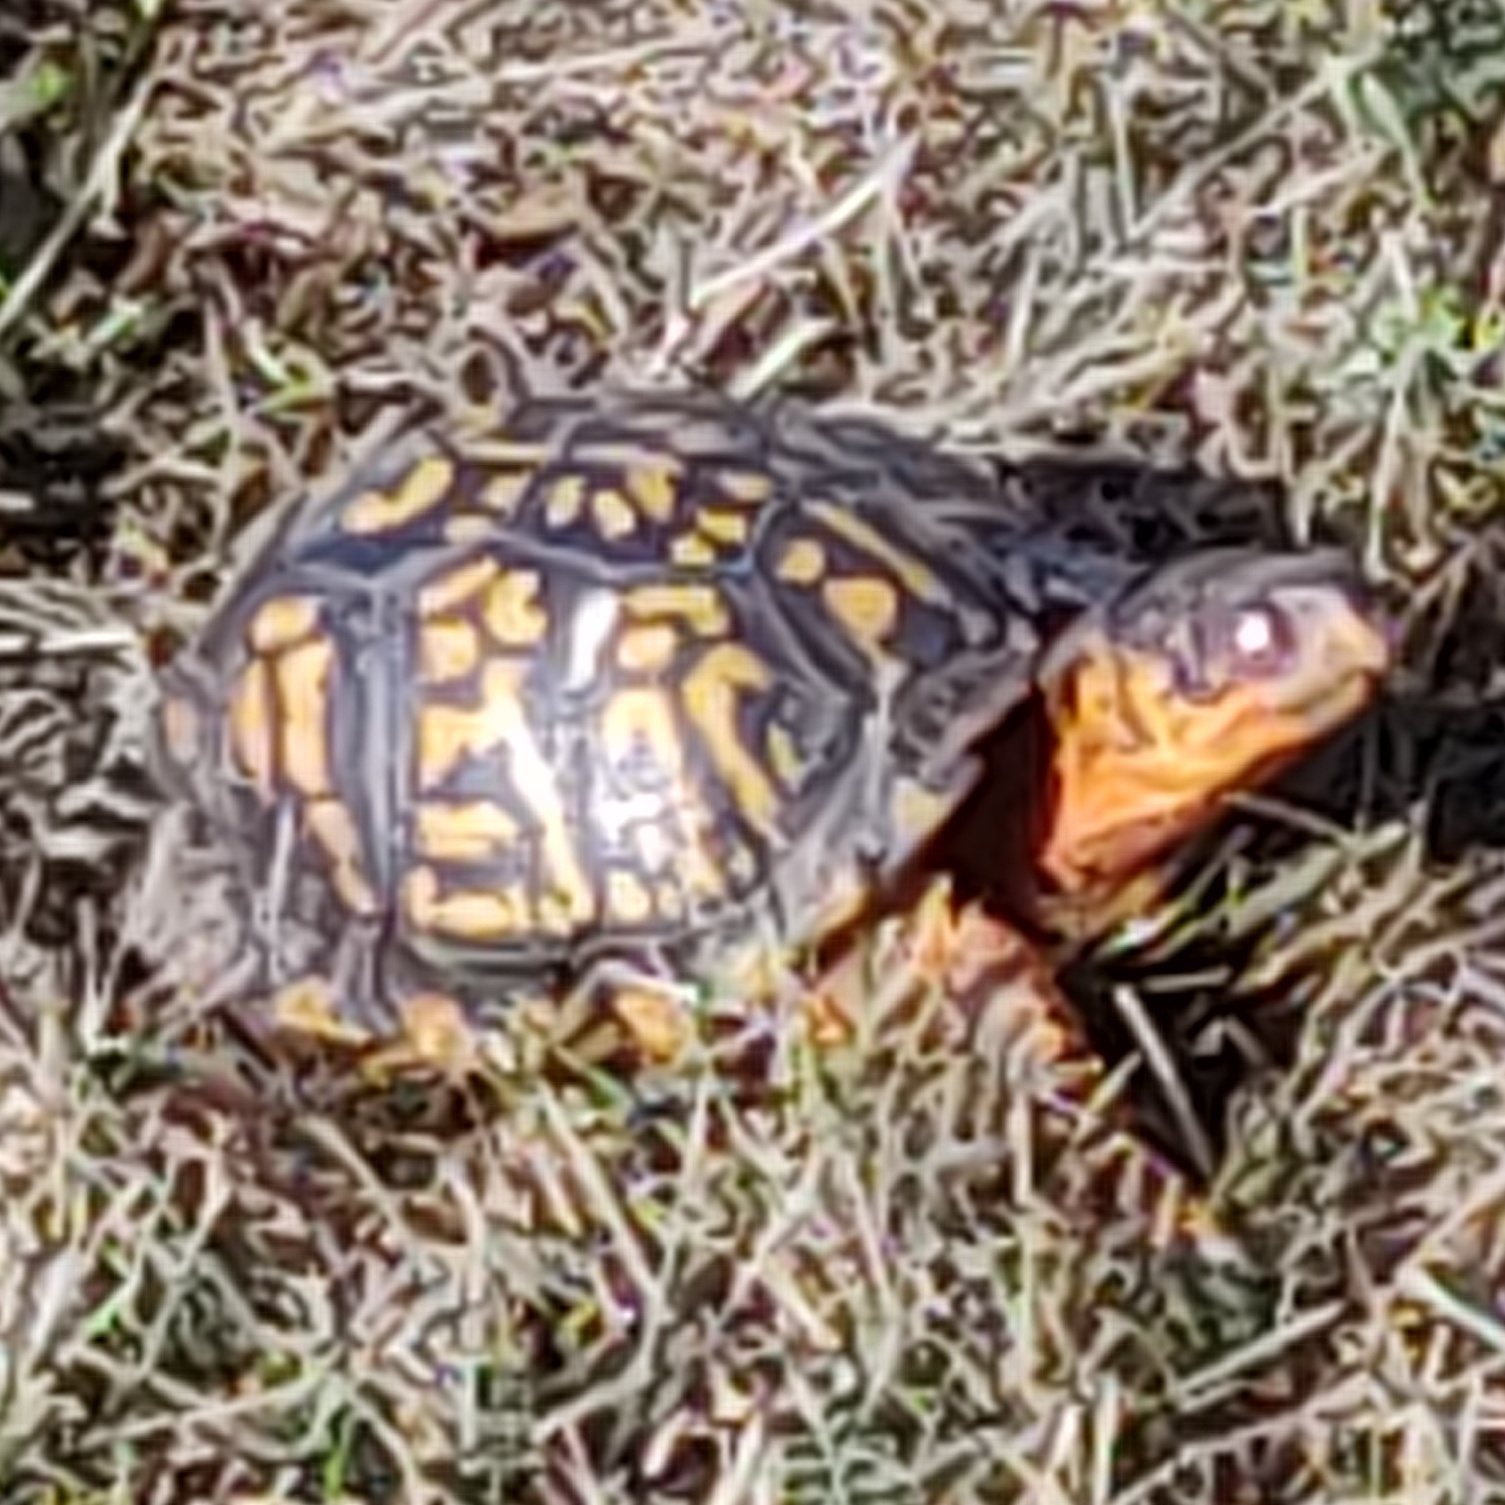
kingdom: Animalia
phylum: Chordata
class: Testudines
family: Emydidae
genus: Terrapene
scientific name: Terrapene carolina
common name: Common box turtle
